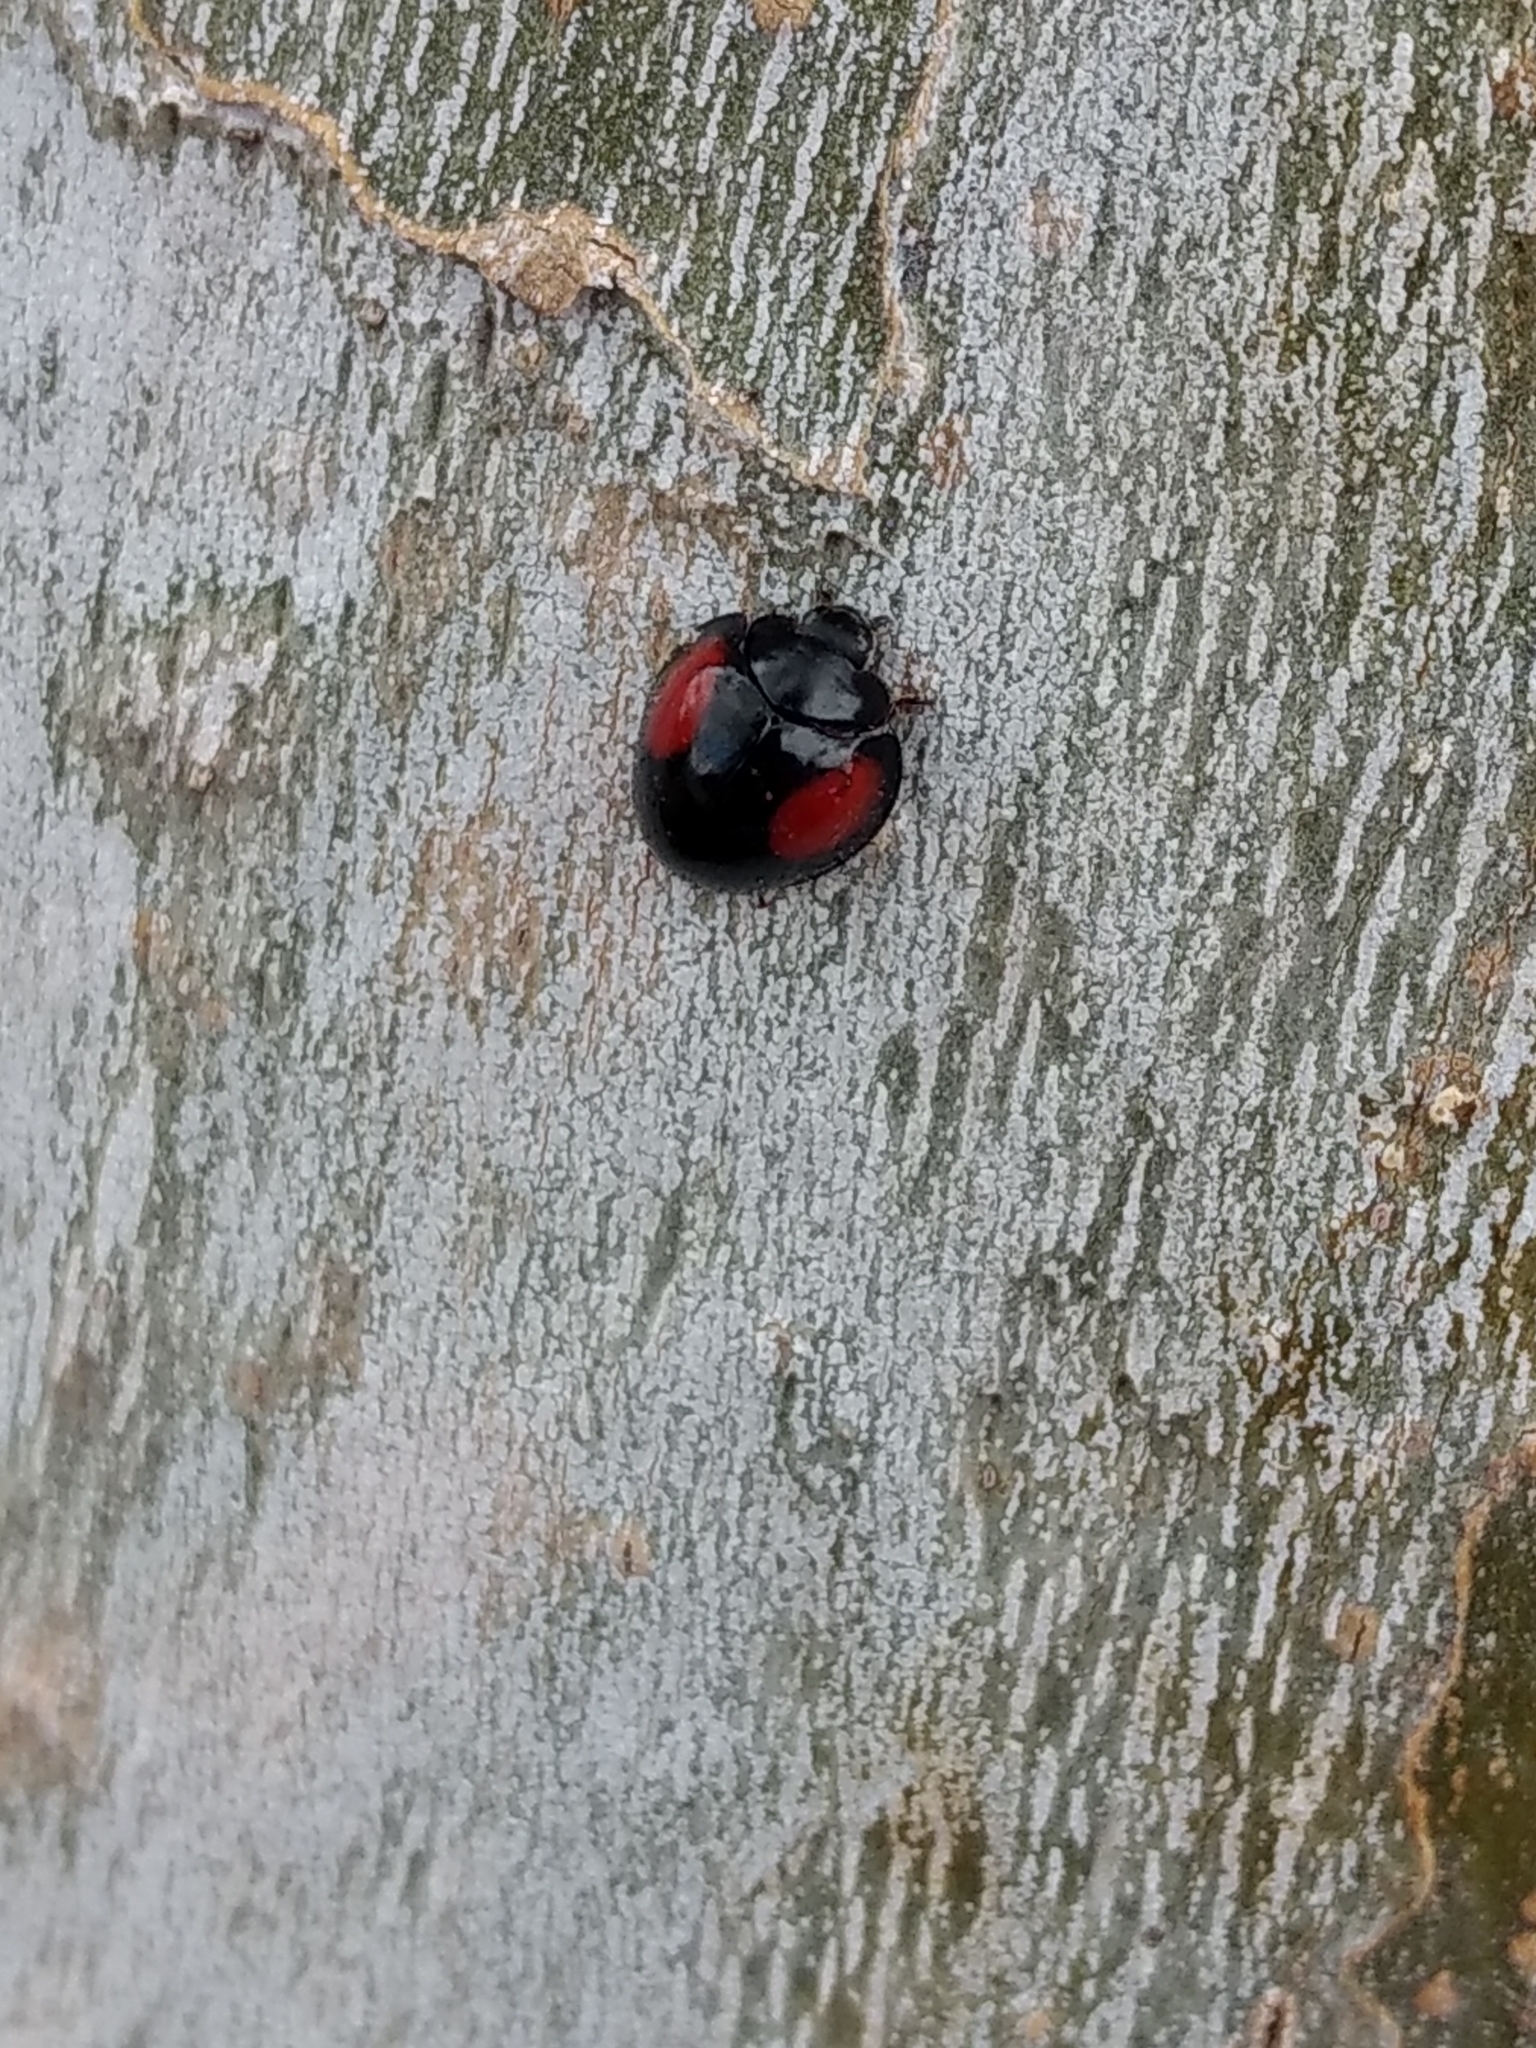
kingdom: Animalia
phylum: Arthropoda
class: Insecta
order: Coleoptera
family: Coccinellidae
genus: Axion
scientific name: Axion plagiatum
